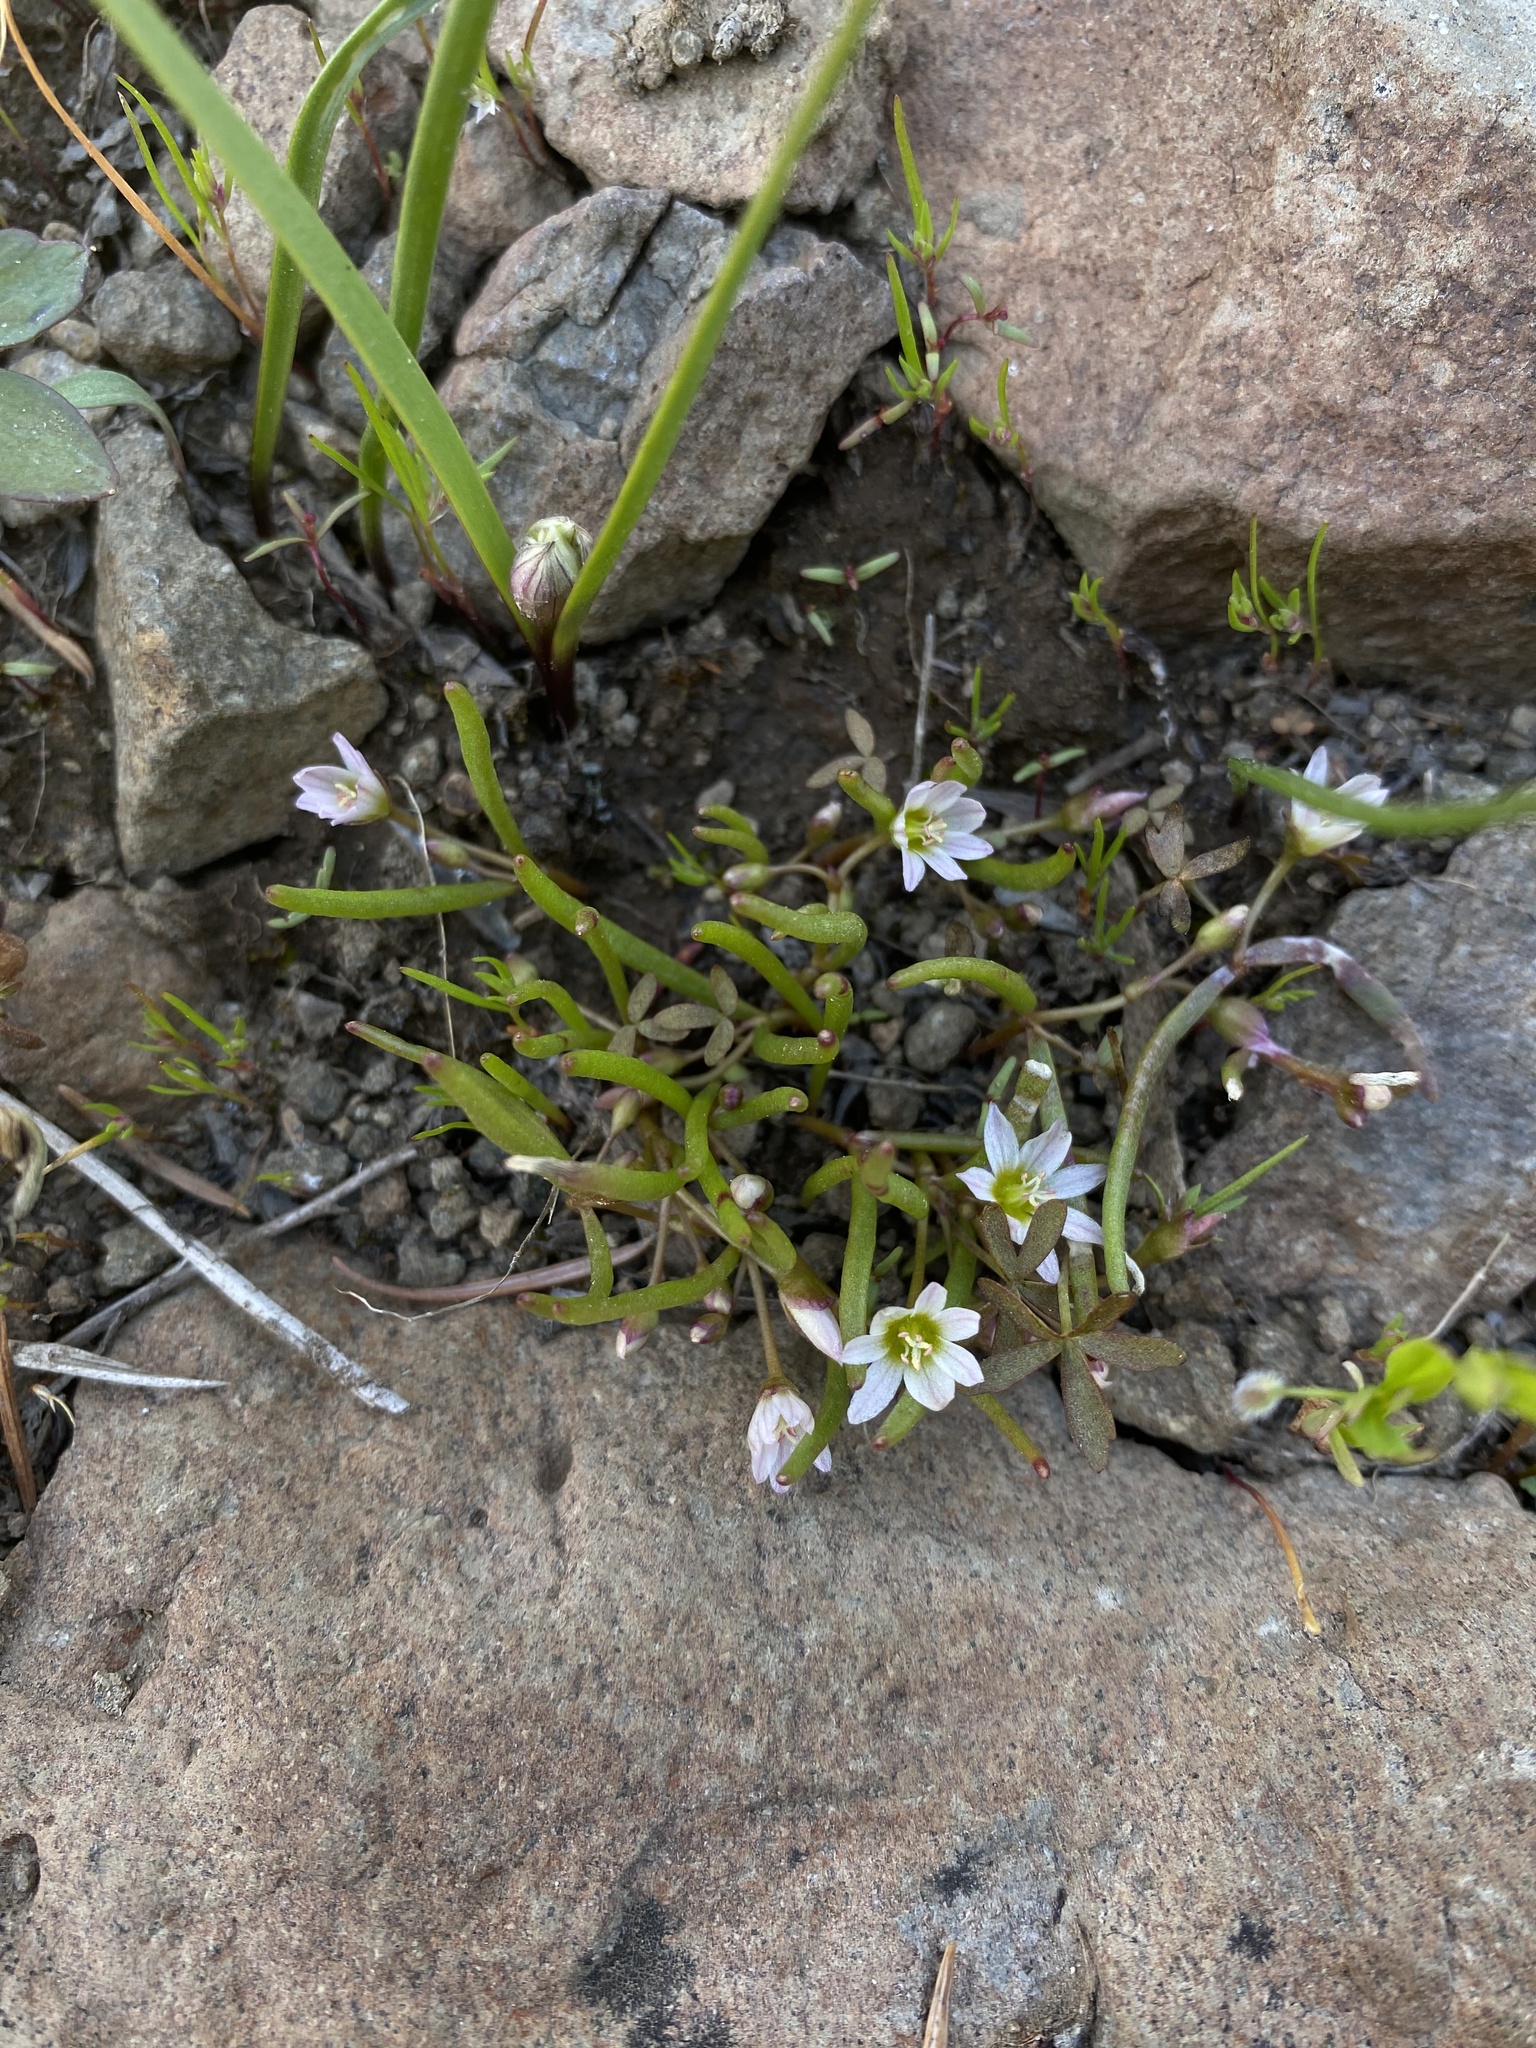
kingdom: Plantae
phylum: Tracheophyta
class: Magnoliopsida
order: Caryophyllales
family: Montiaceae
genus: Lewisia
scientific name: Lewisia triphylla
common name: Three-leaved bitterroot
